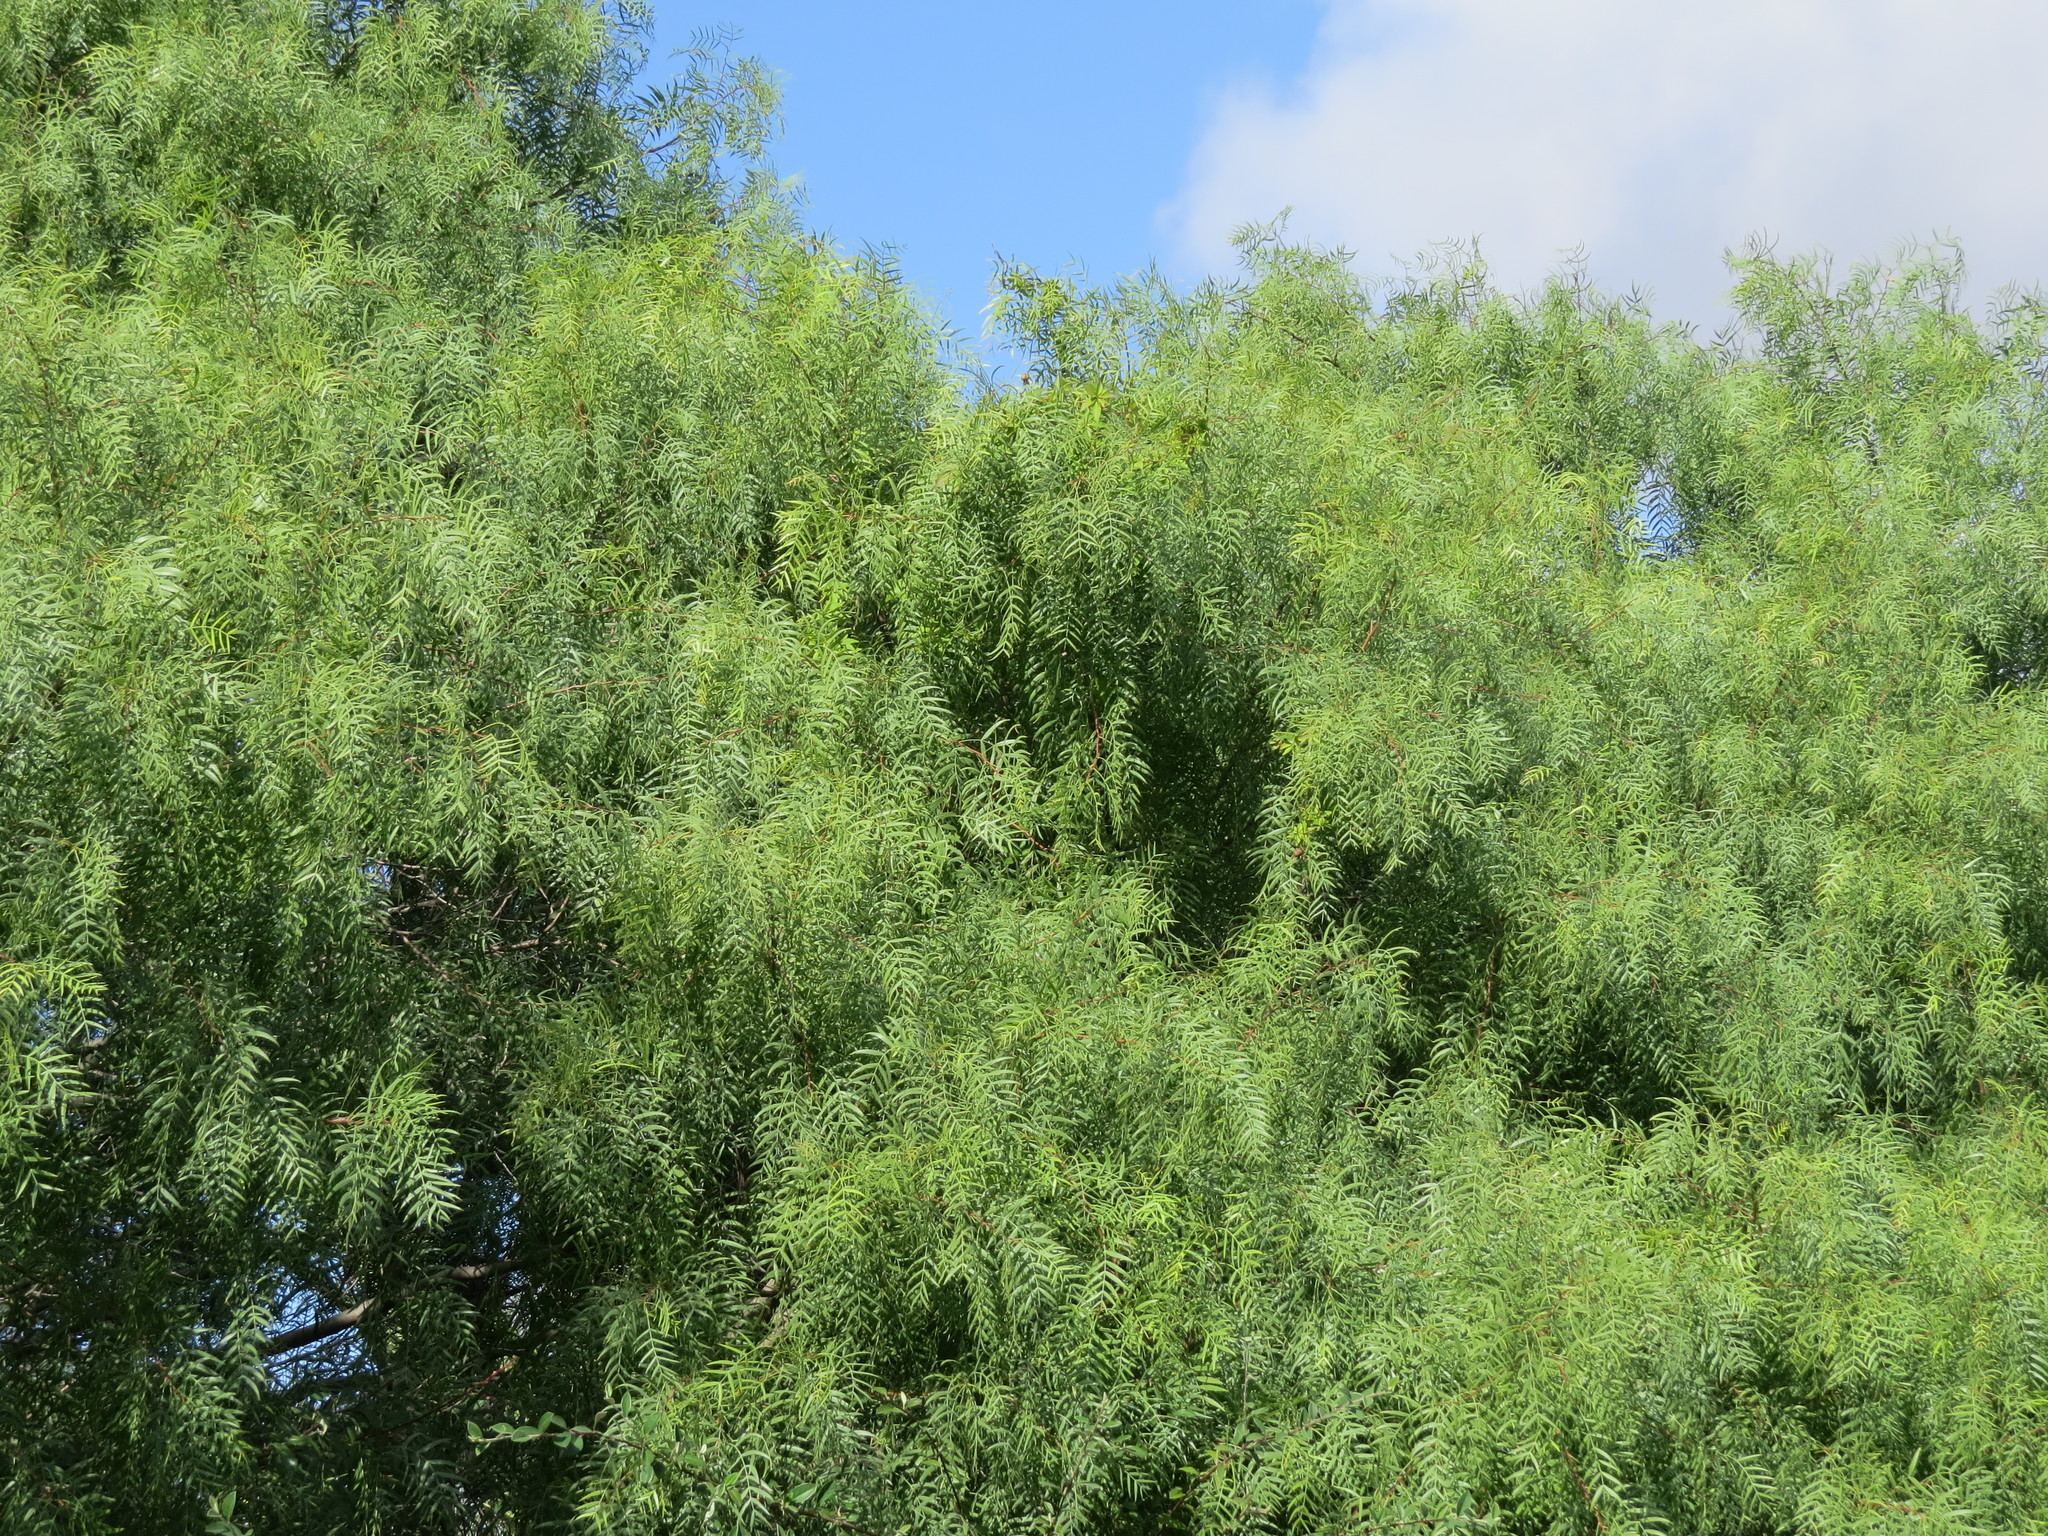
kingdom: Plantae
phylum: Tracheophyta
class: Magnoliopsida
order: Sapindales
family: Anacardiaceae
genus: Schinus
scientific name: Schinus molle
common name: Peruvian peppertree
